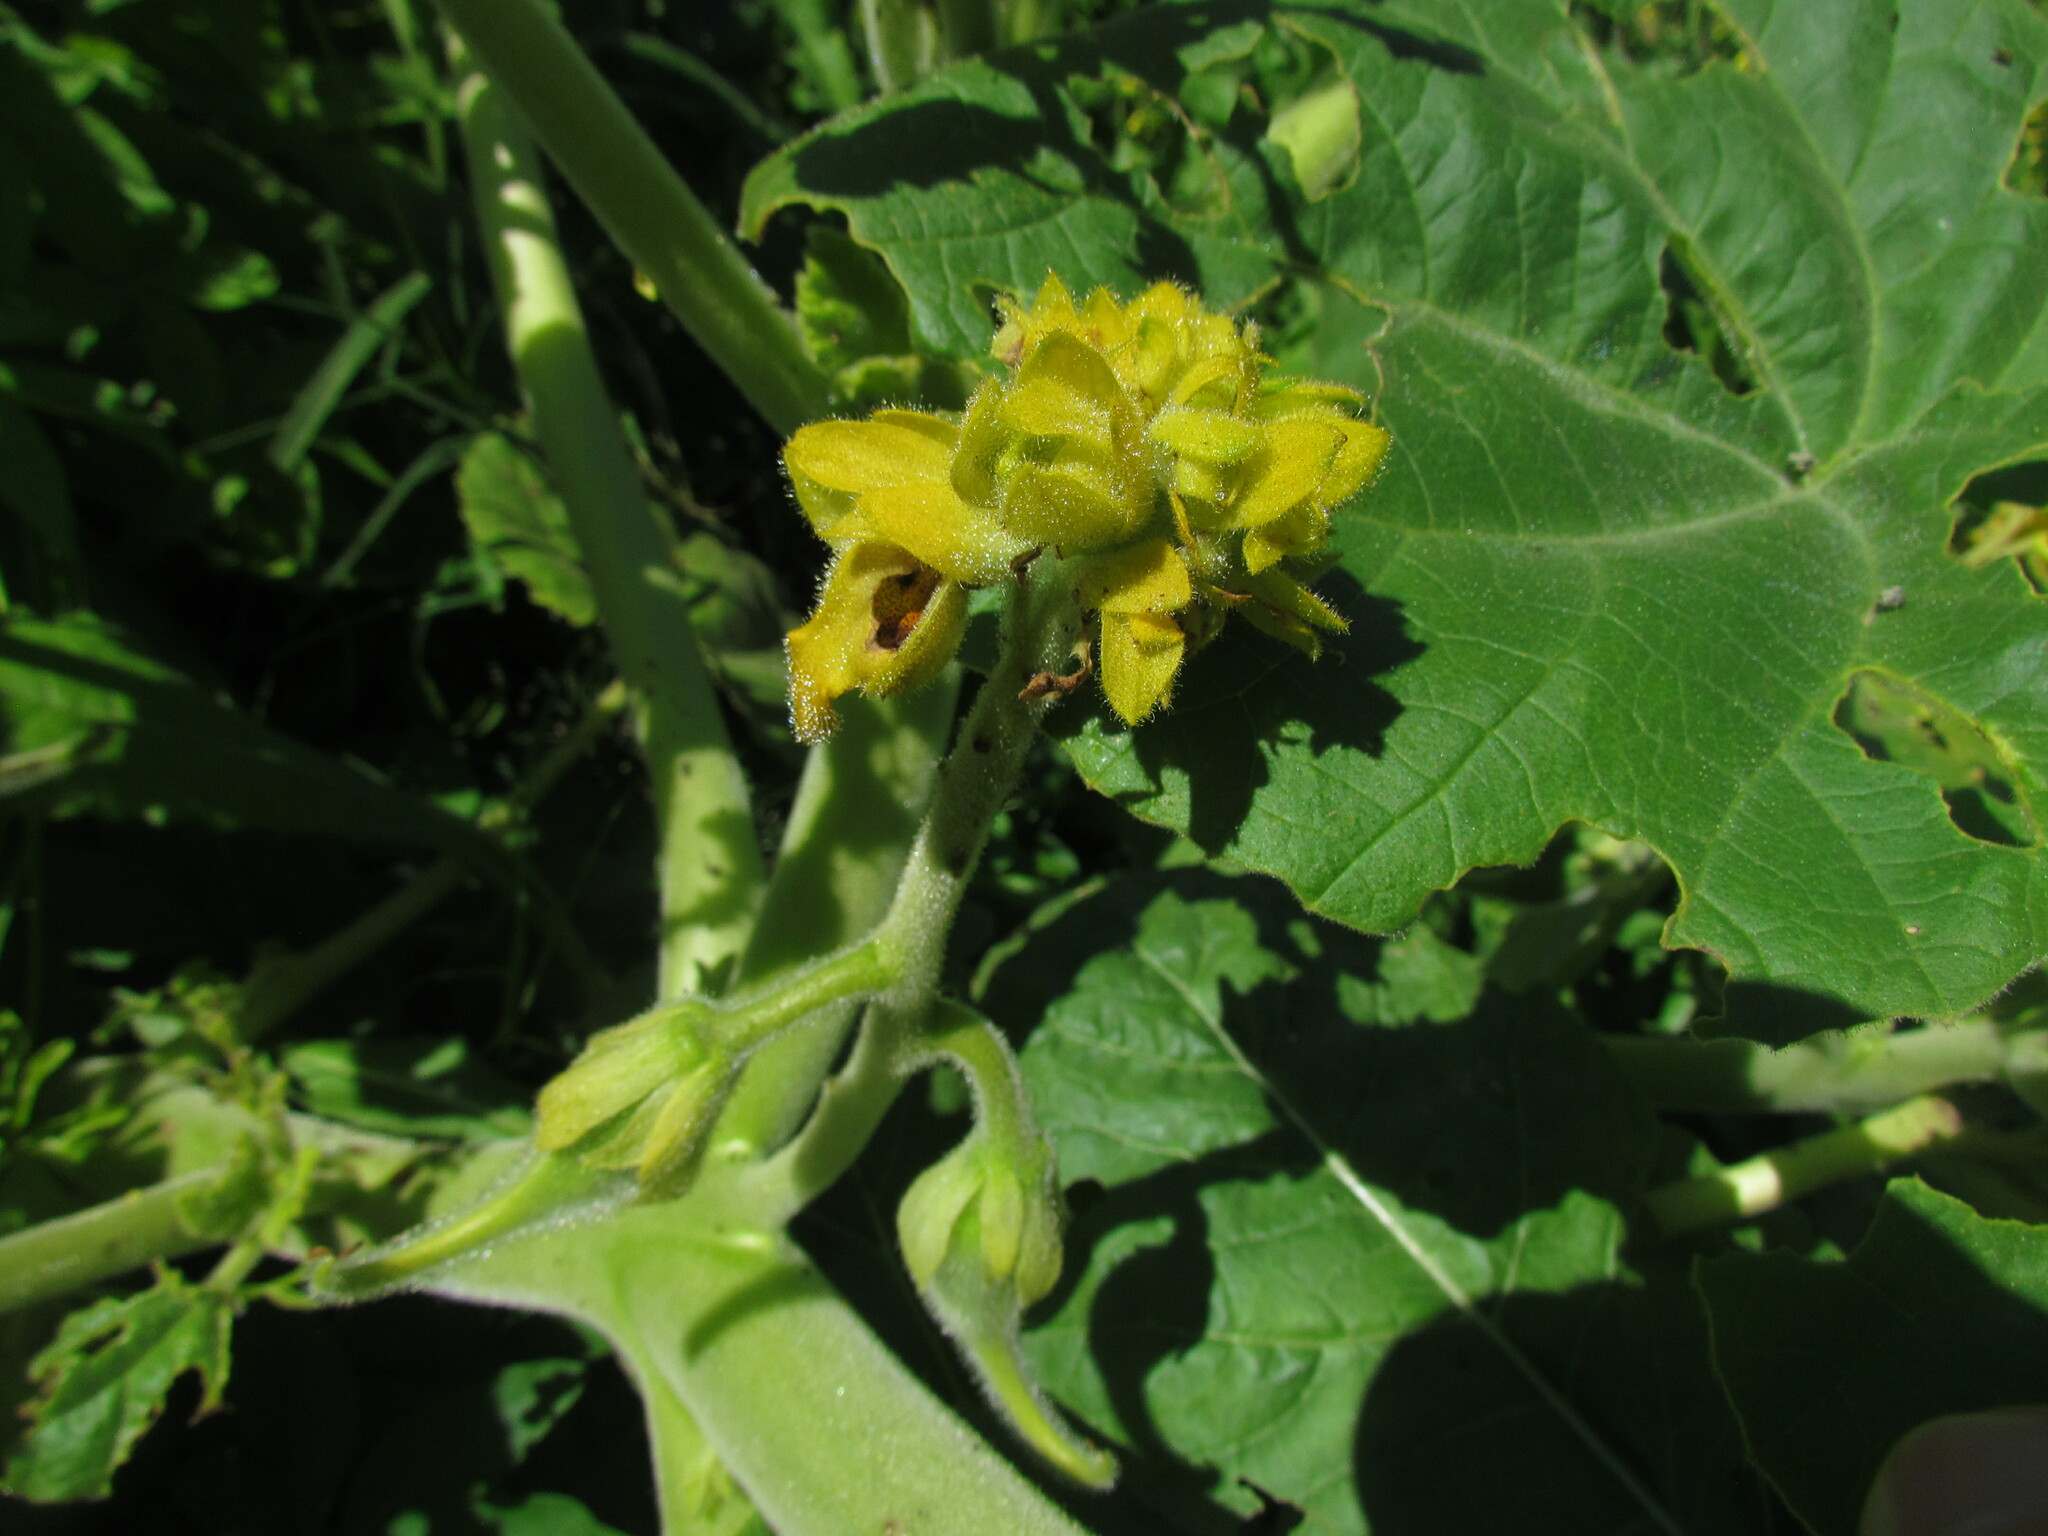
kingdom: Plantae
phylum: Tracheophyta
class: Magnoliopsida
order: Lamiales
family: Martyniaceae
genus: Ibicella
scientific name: Ibicella lutea
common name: Yellow unicorn-plant
